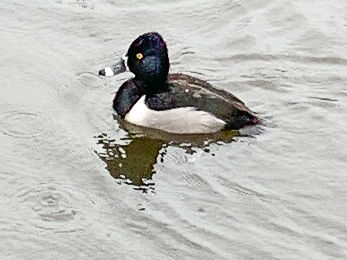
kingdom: Animalia
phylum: Chordata
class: Aves
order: Anseriformes
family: Anatidae
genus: Aythya
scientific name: Aythya collaris
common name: Ring-necked duck
